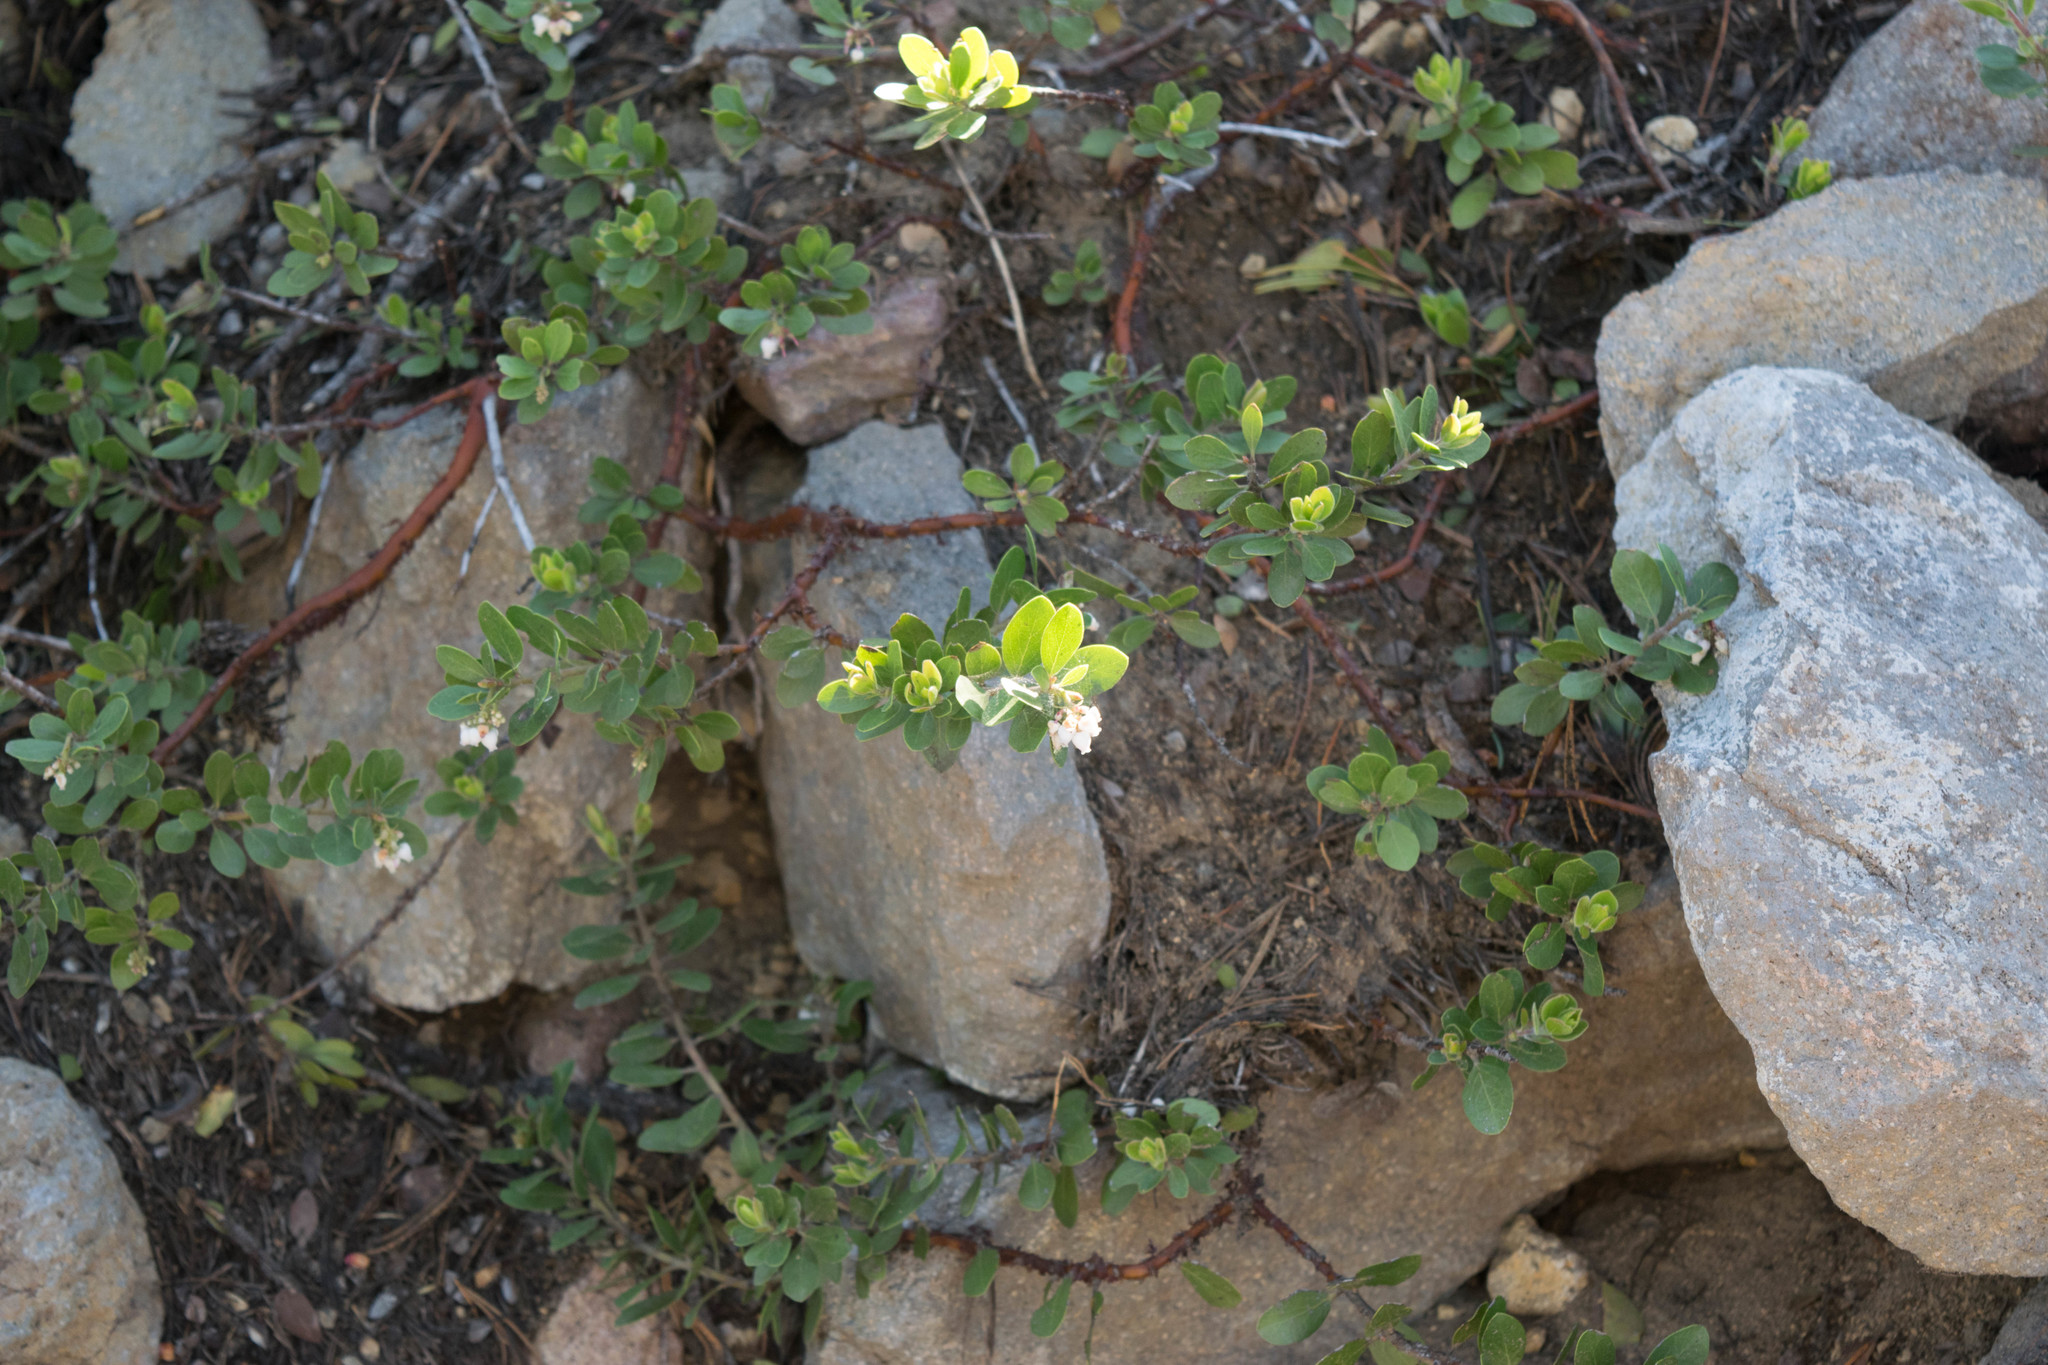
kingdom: Plantae
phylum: Tracheophyta
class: Magnoliopsida
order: Ericales
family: Ericaceae
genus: Arctostaphylos
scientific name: Arctostaphylos nevadensis
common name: Pinemat manzanita
